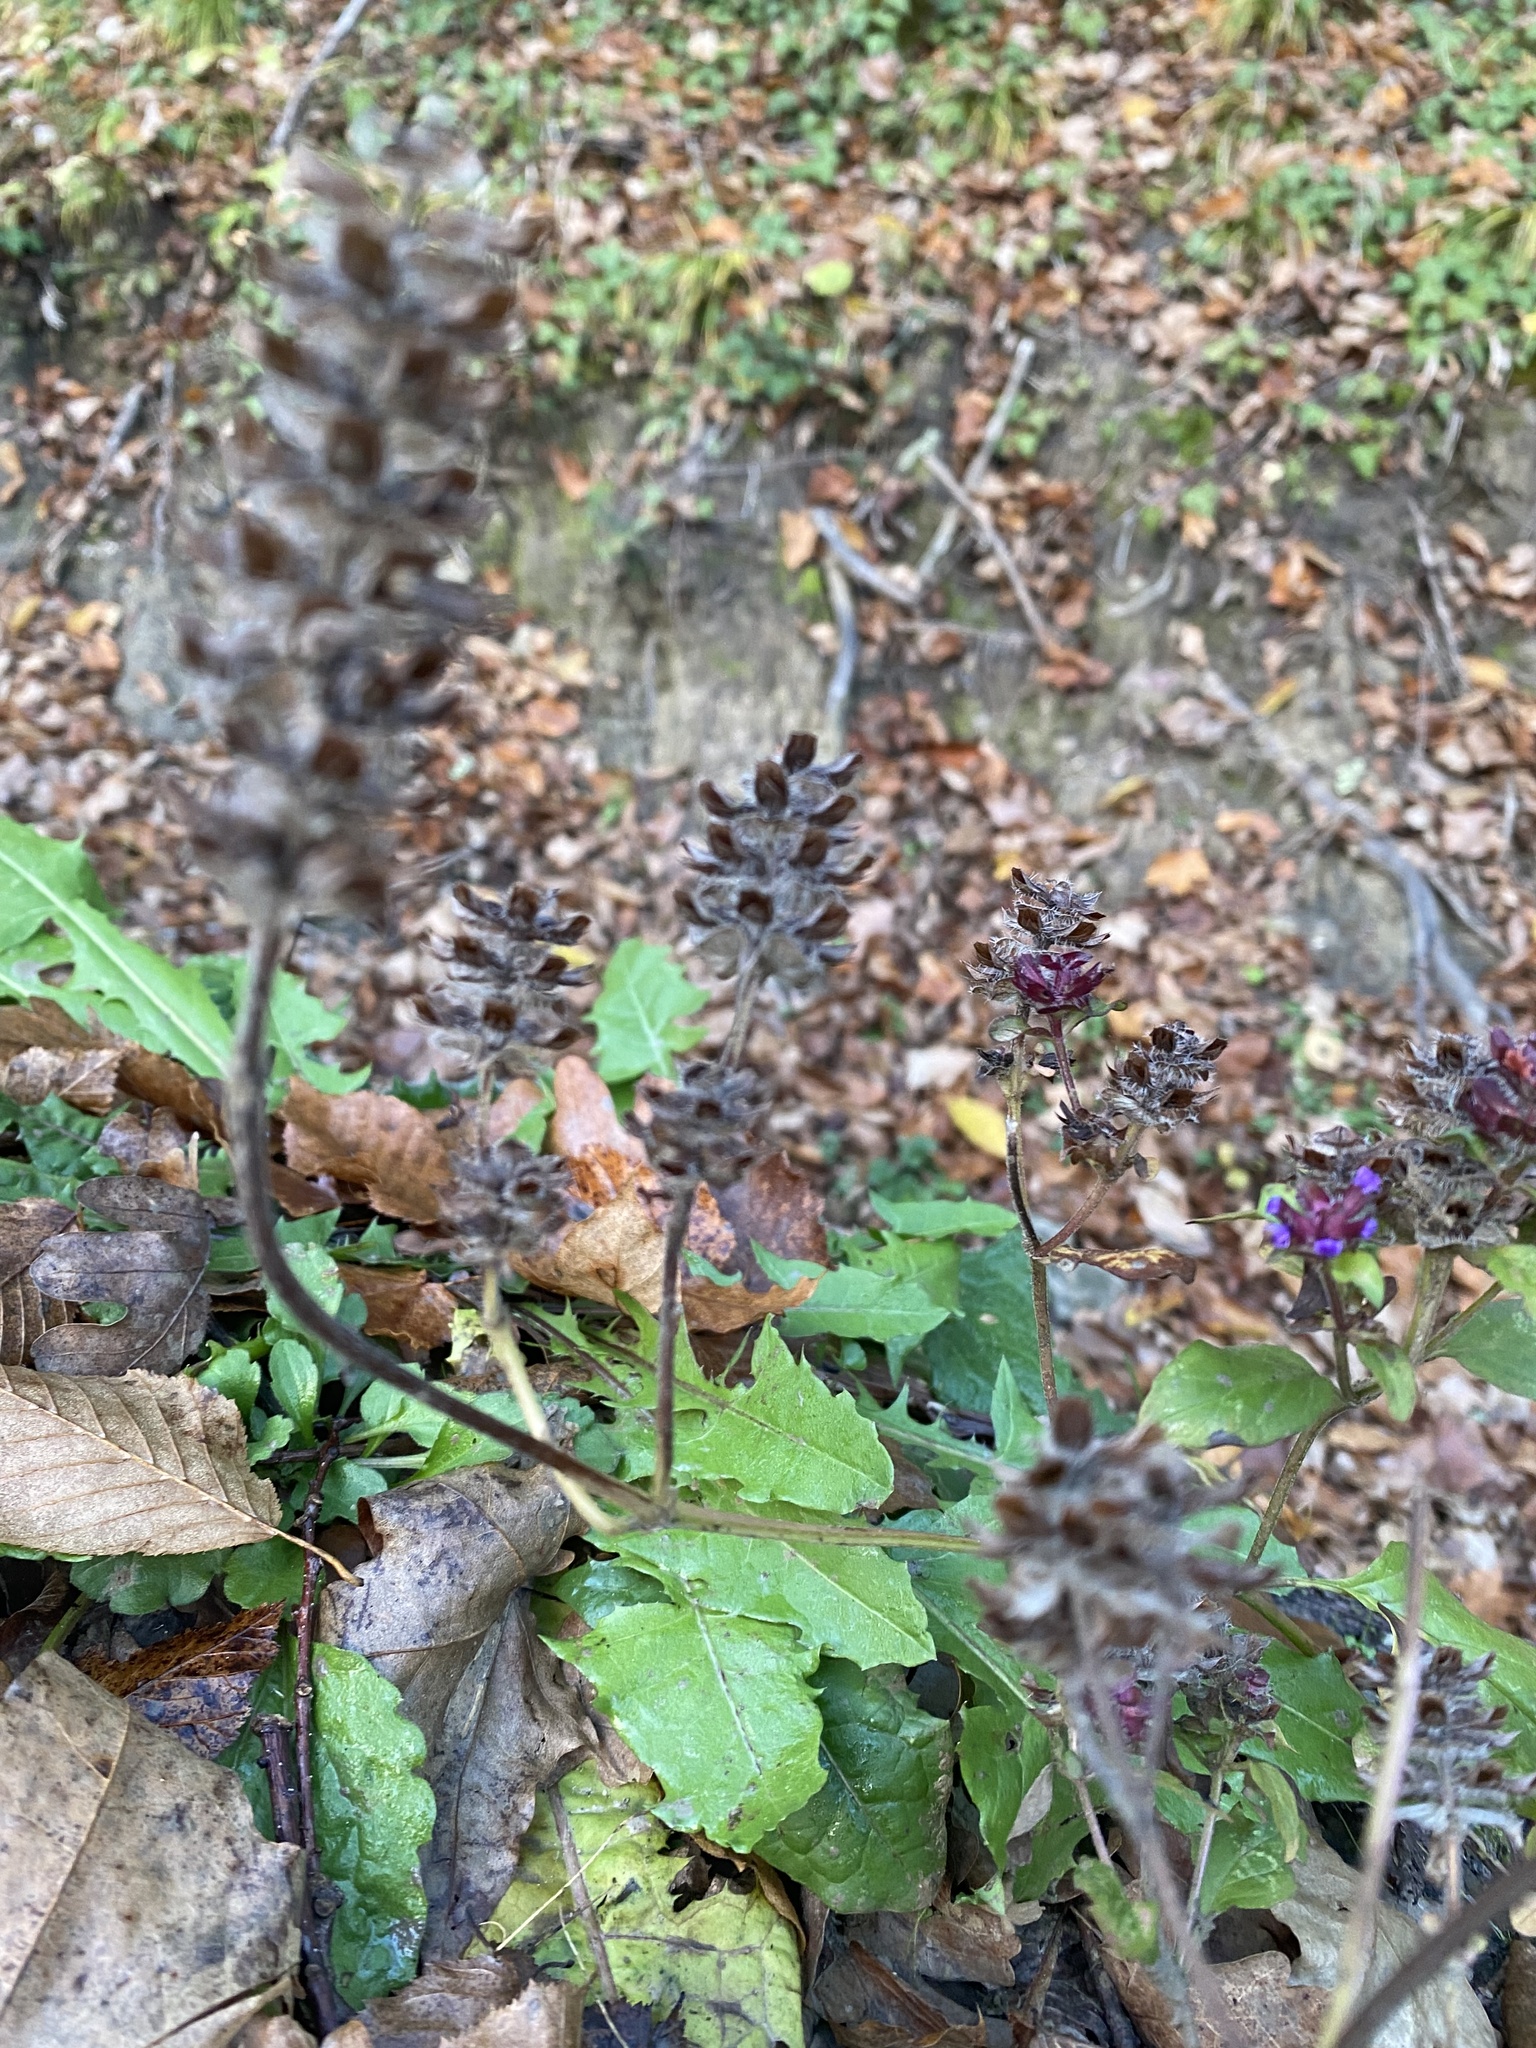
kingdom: Plantae
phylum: Tracheophyta
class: Magnoliopsida
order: Lamiales
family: Lamiaceae
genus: Prunella
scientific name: Prunella vulgaris
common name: Heal-all
